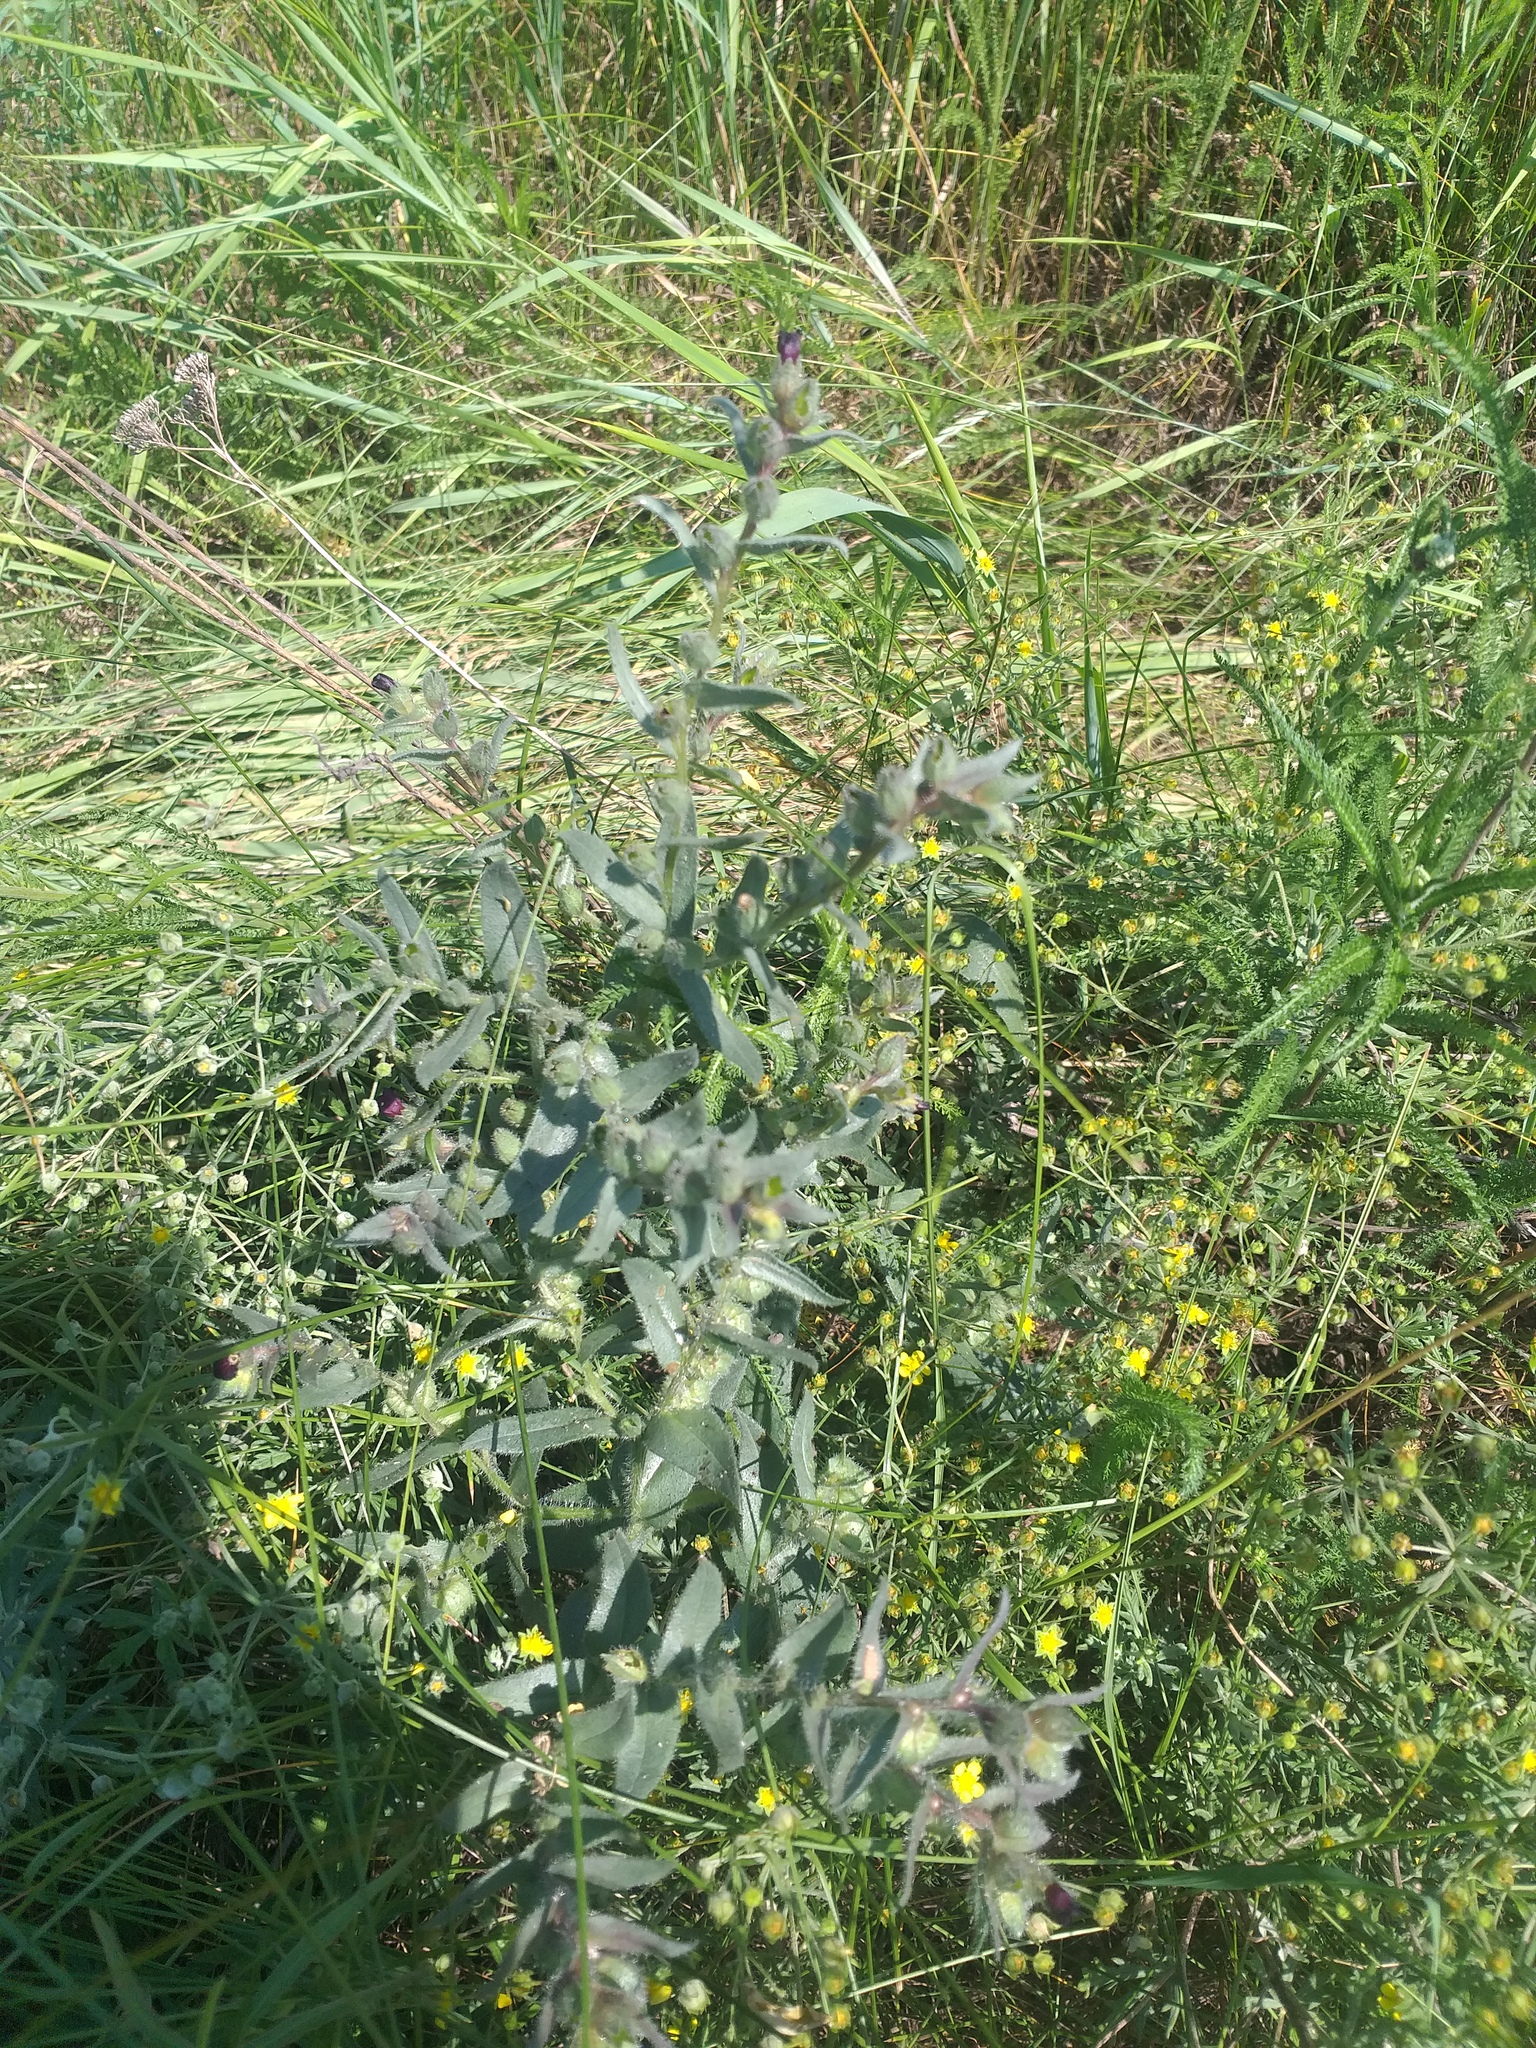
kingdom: Plantae
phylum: Tracheophyta
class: Magnoliopsida
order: Boraginales
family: Boraginaceae
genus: Nonea
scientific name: Nonea pulla
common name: Brown nonea
